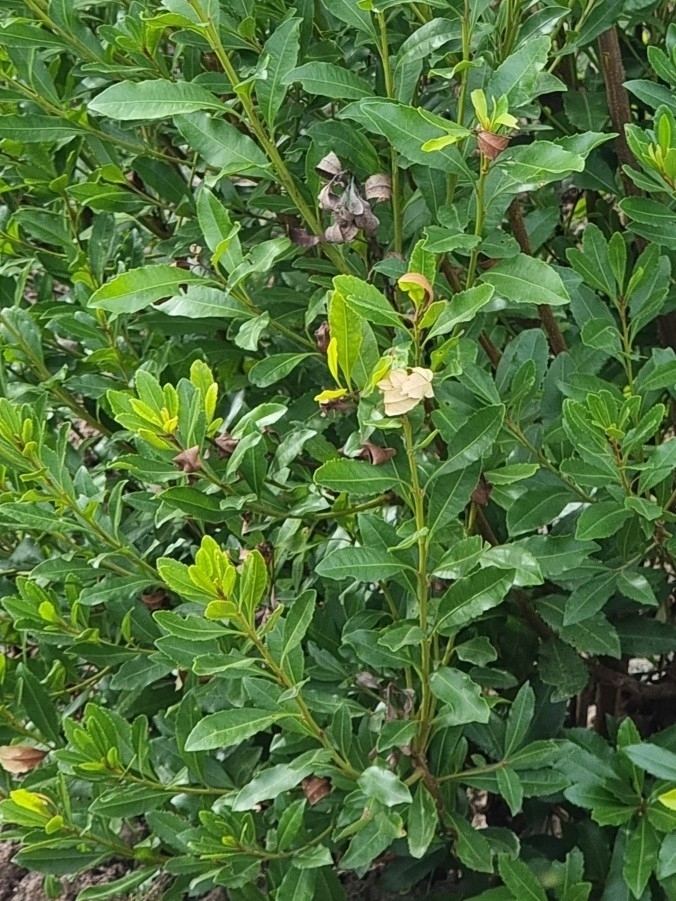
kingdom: Plantae
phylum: Tracheophyta
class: Magnoliopsida
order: Fagales
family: Myricaceae
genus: Morella
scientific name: Morella faya
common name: Firetree
